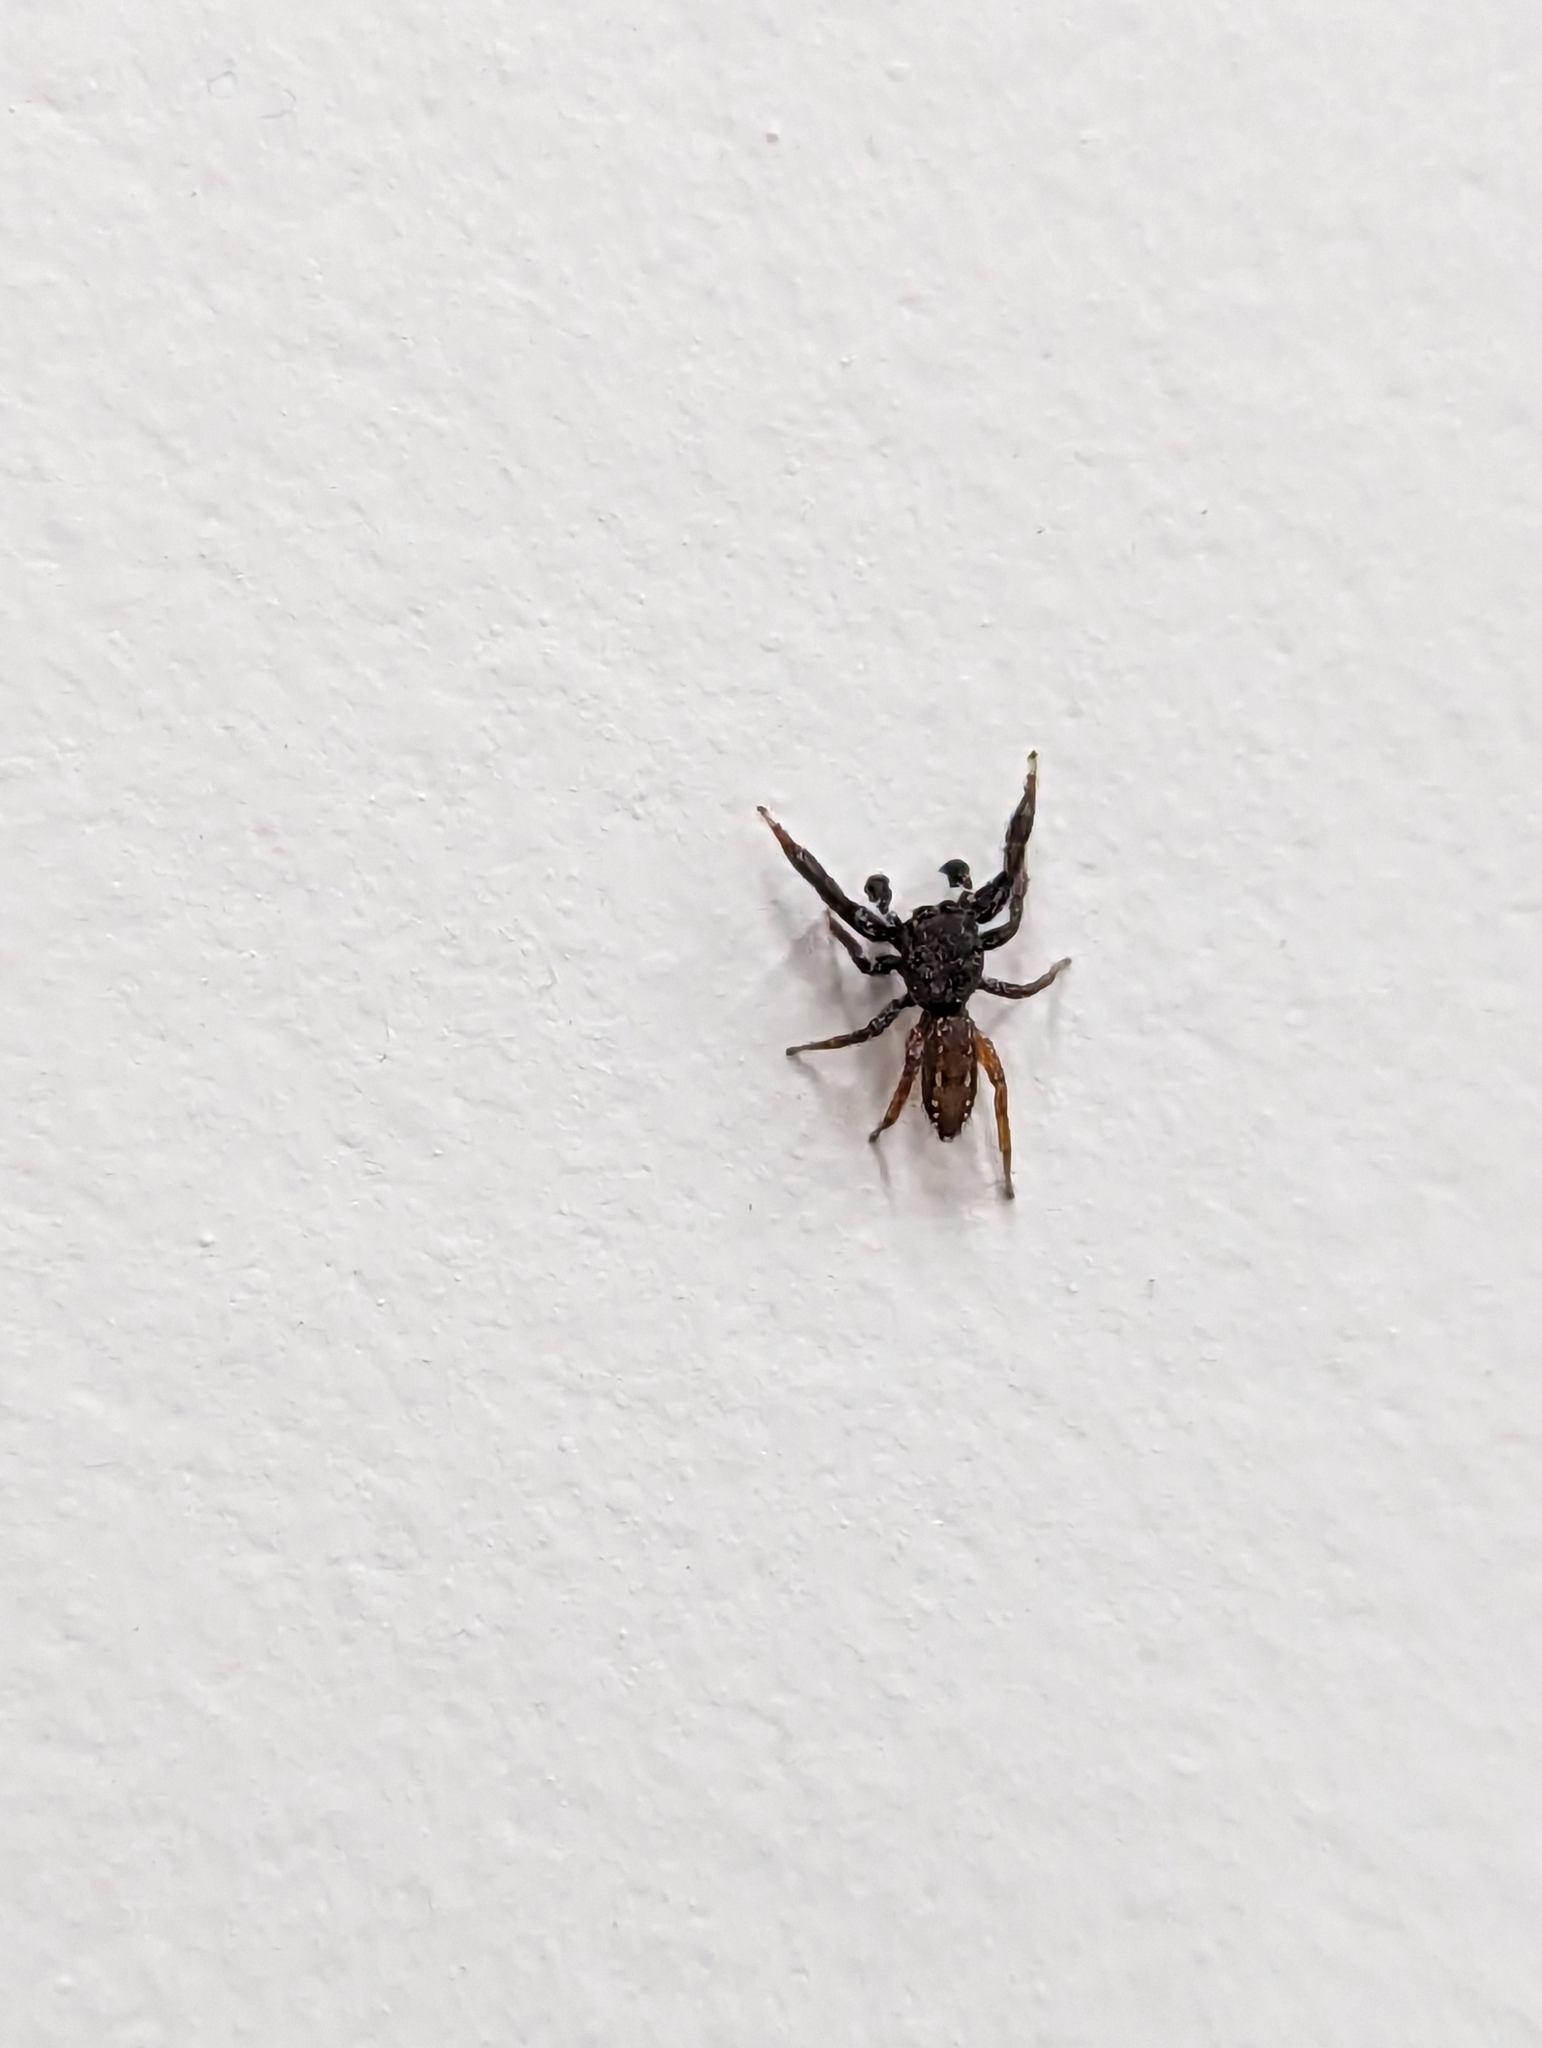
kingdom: Animalia
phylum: Arthropoda
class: Arachnida
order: Araneae
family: Salticidae
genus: Metacyrba
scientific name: Metacyrba taeniola
